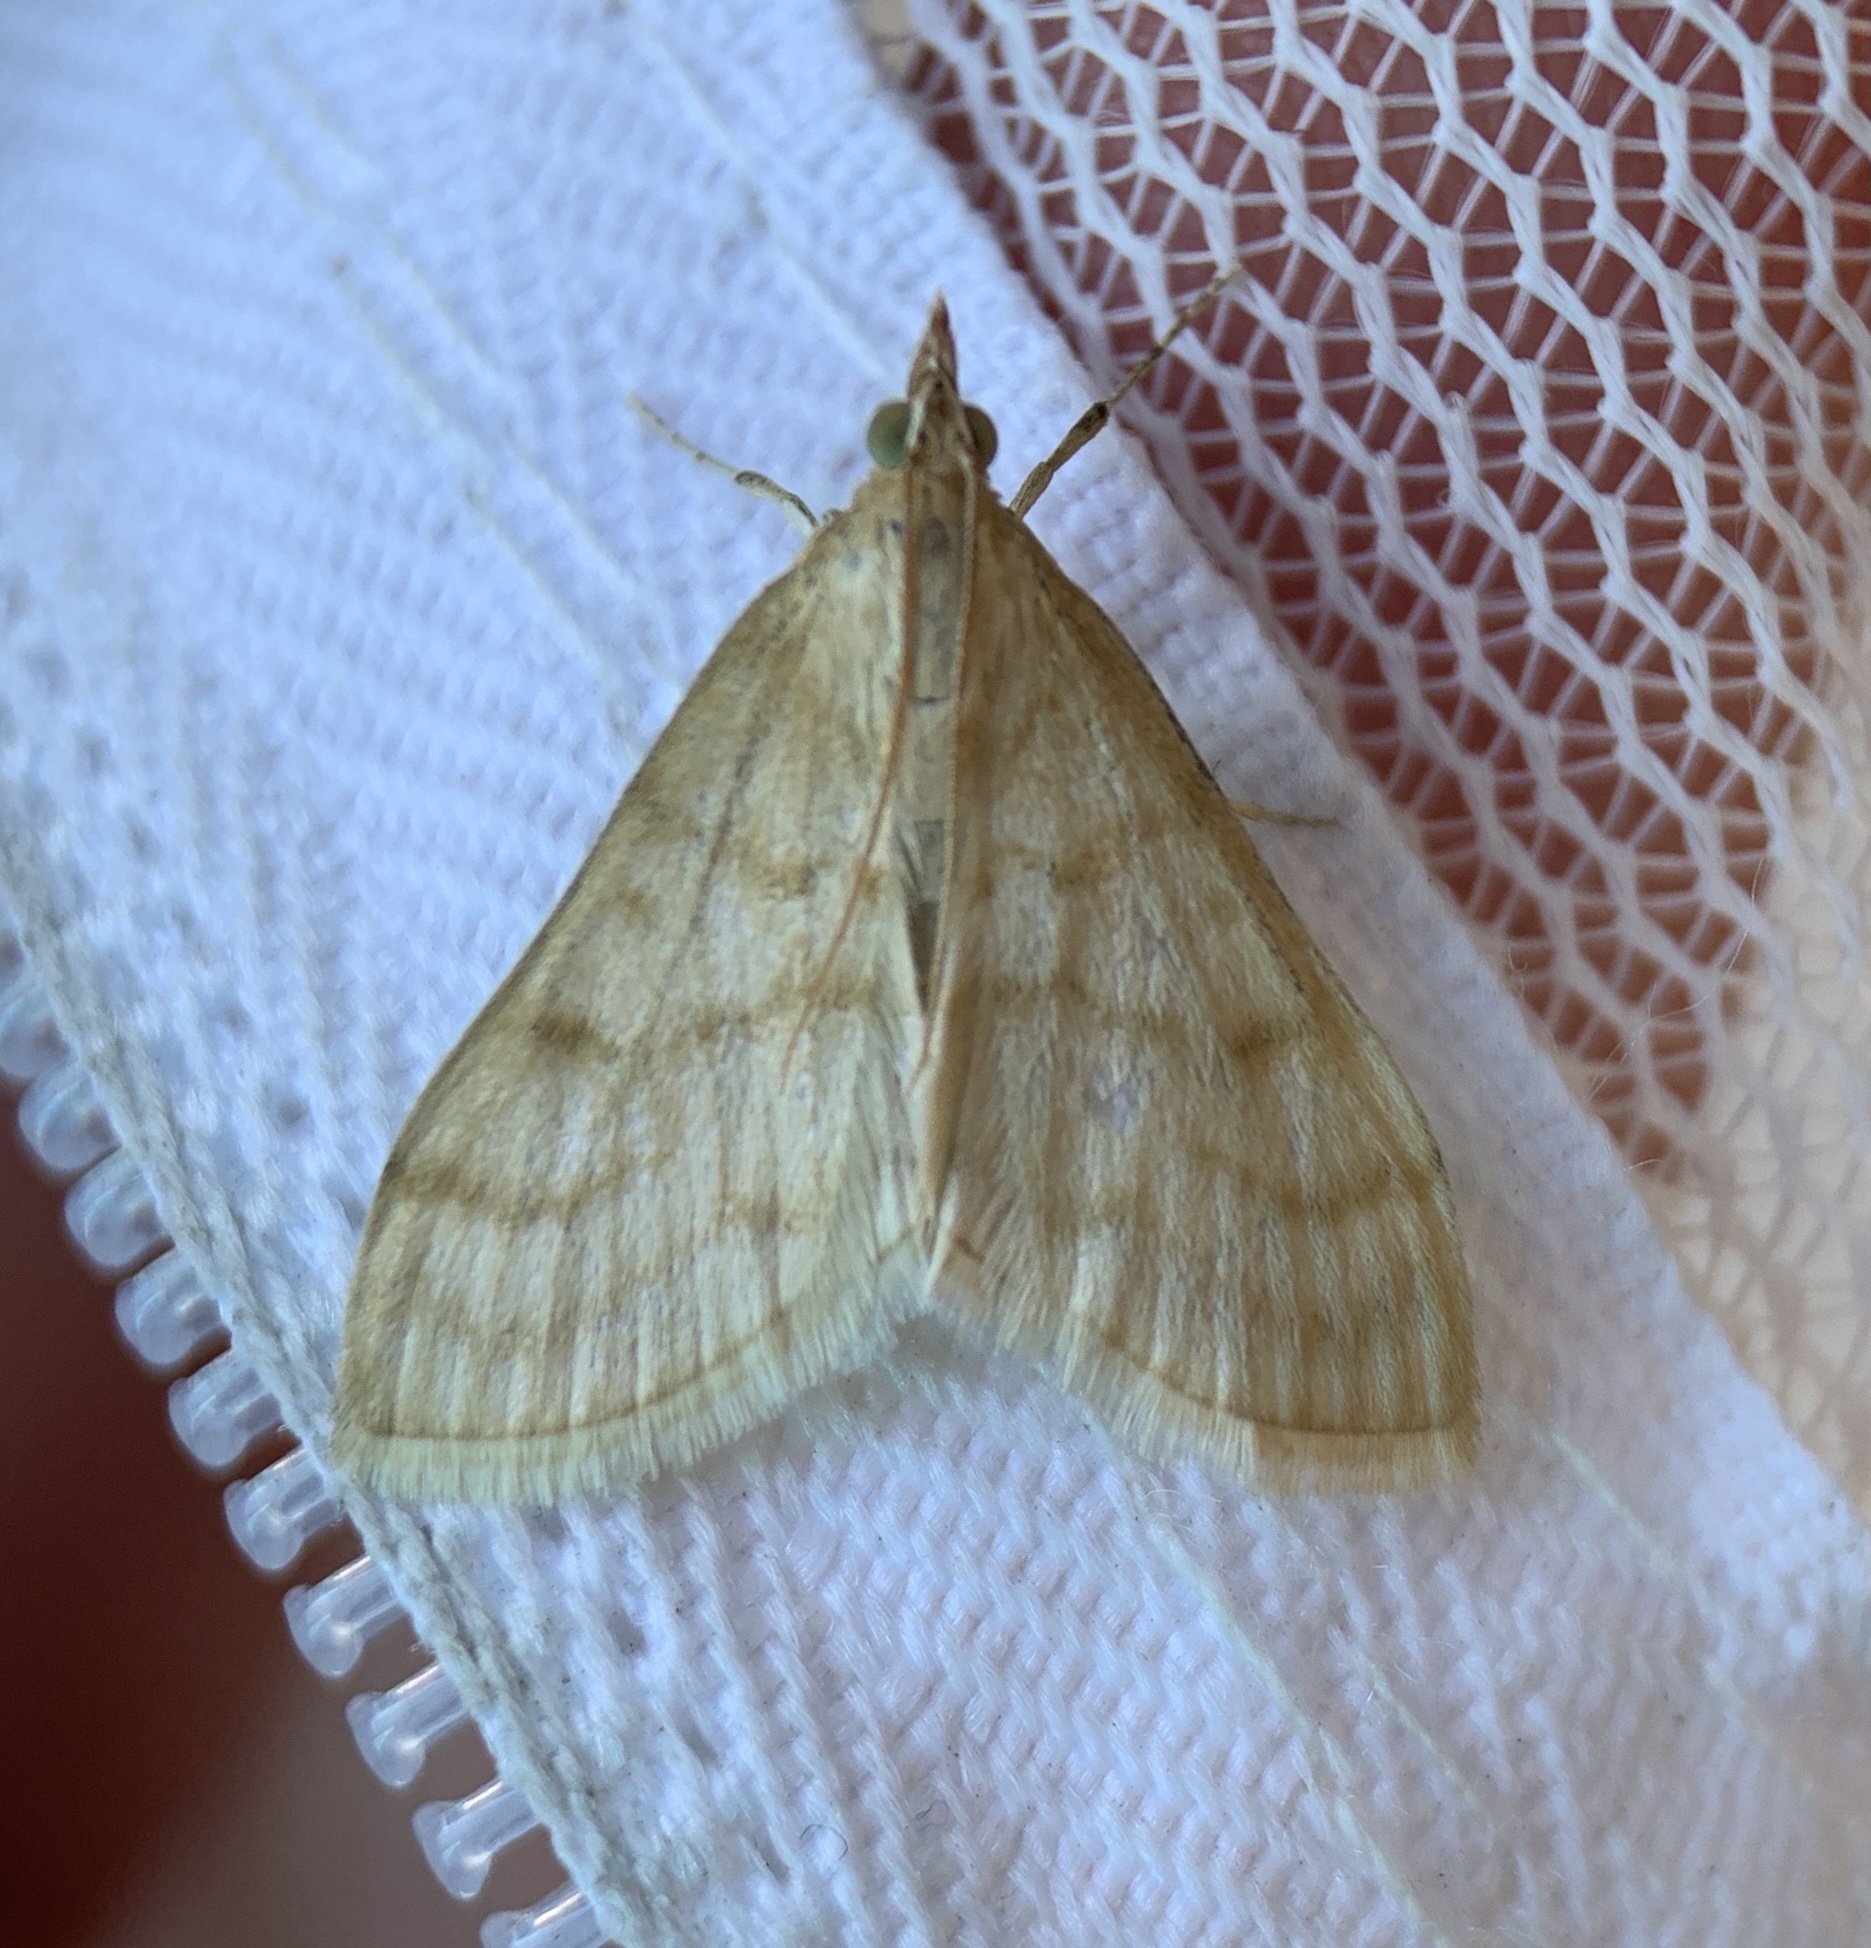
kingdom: Animalia
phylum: Arthropoda
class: Insecta
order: Lepidoptera
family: Crambidae
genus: Paracorsia
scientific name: Paracorsia repandalis
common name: Mullein moth
